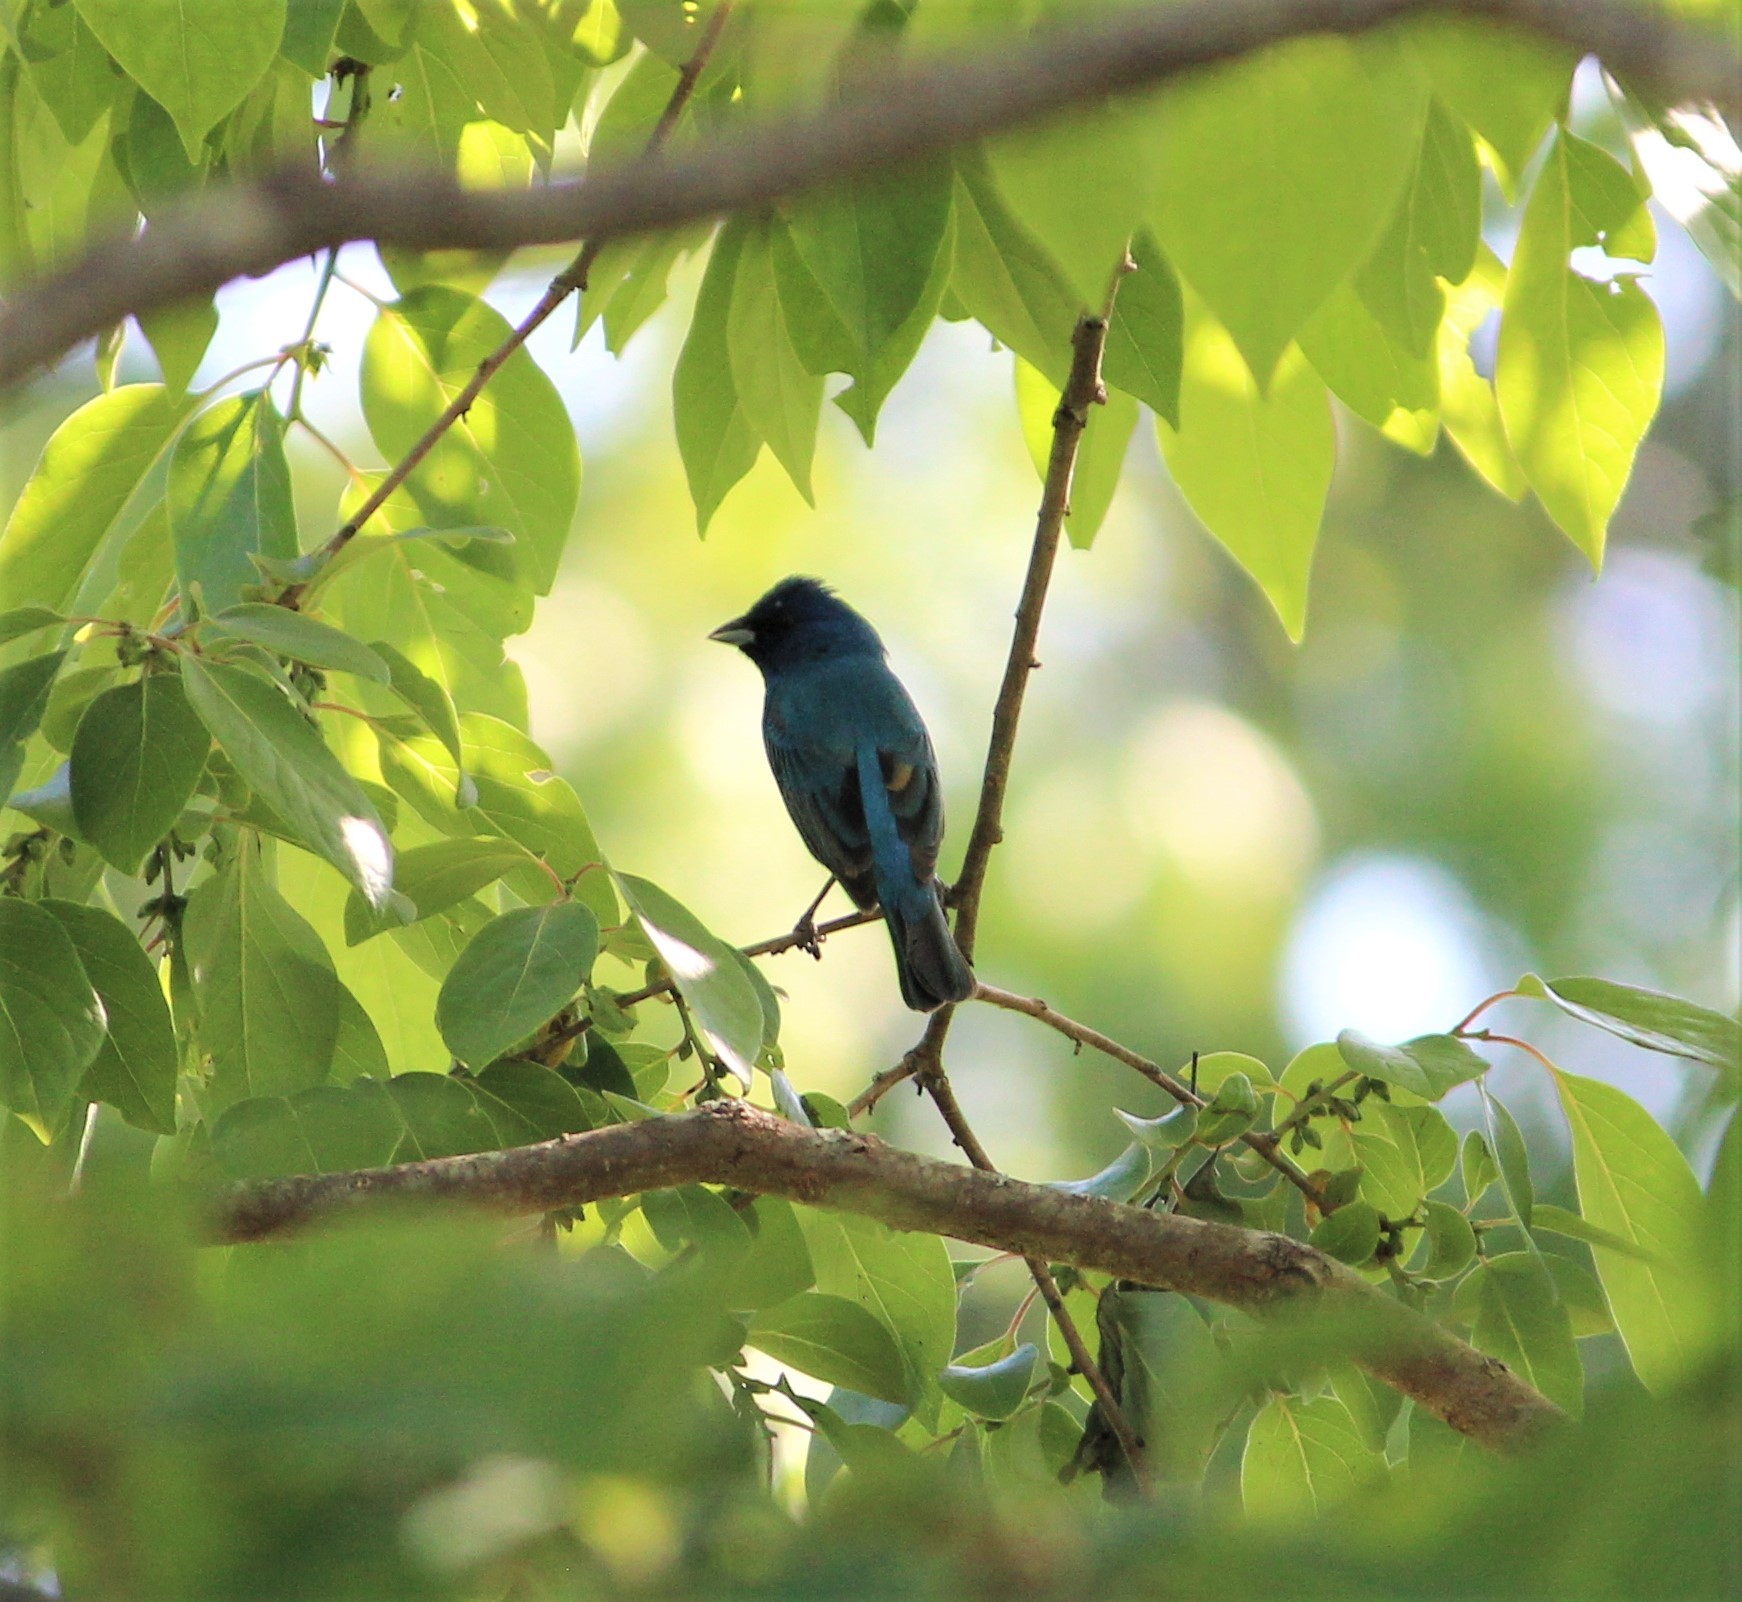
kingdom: Animalia
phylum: Chordata
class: Aves
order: Passeriformes
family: Cardinalidae
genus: Passerina
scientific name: Passerina cyanea
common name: Indigo bunting
